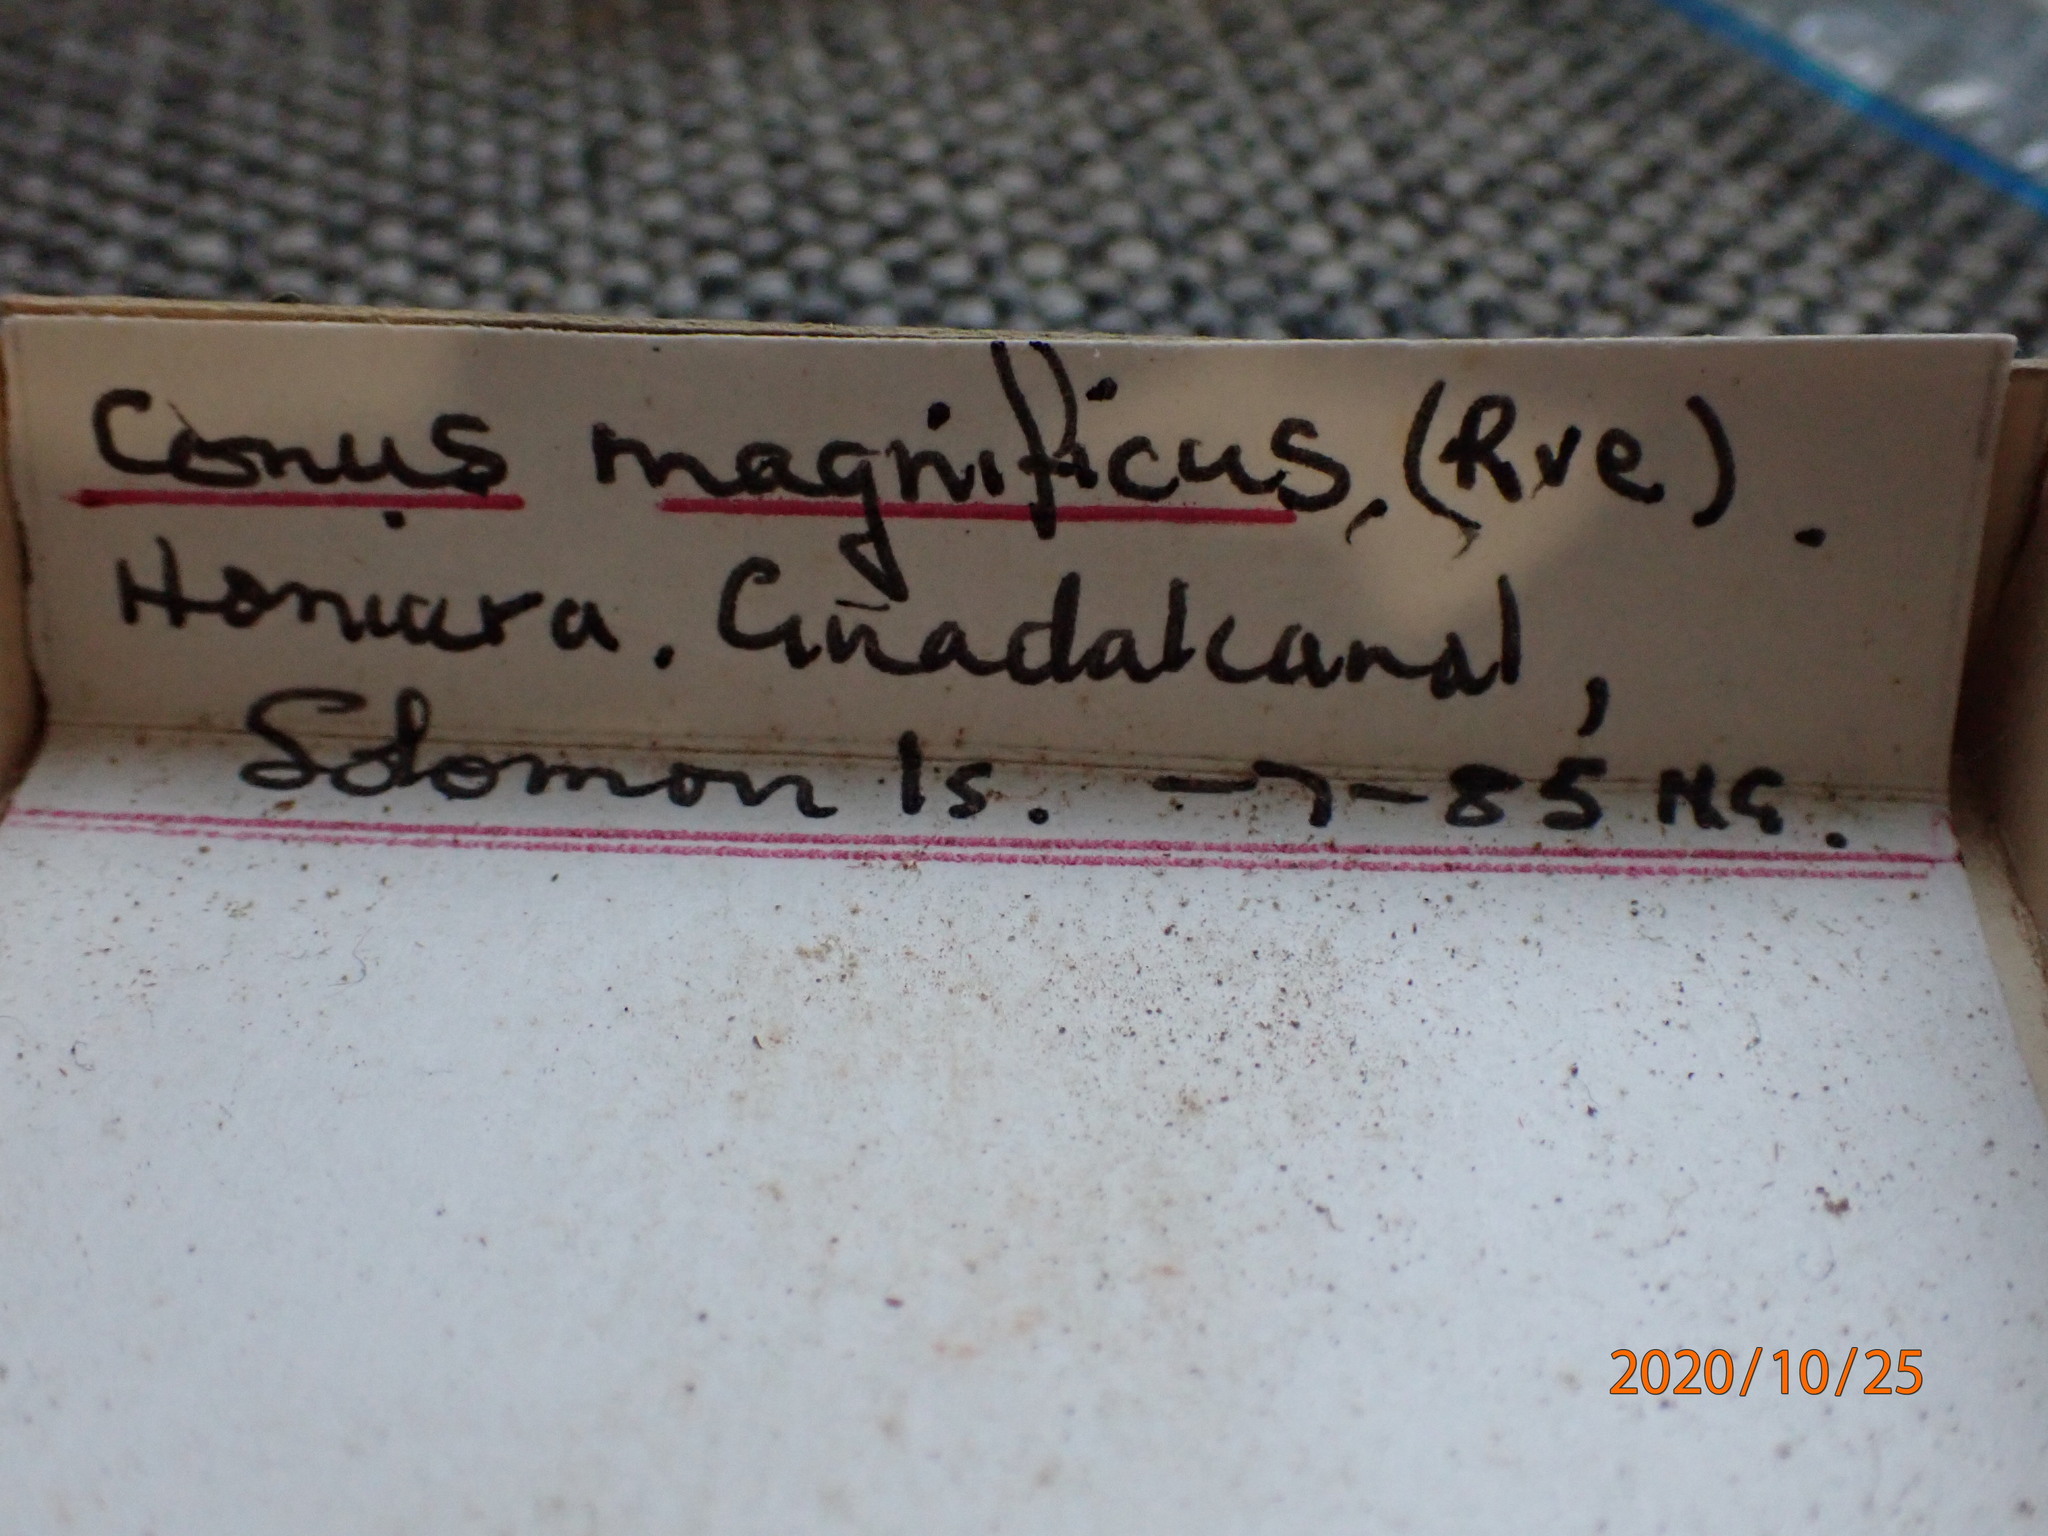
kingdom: Animalia
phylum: Mollusca
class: Gastropoda
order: Neogastropoda
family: Conidae
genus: Conus
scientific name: Conus magnificus
